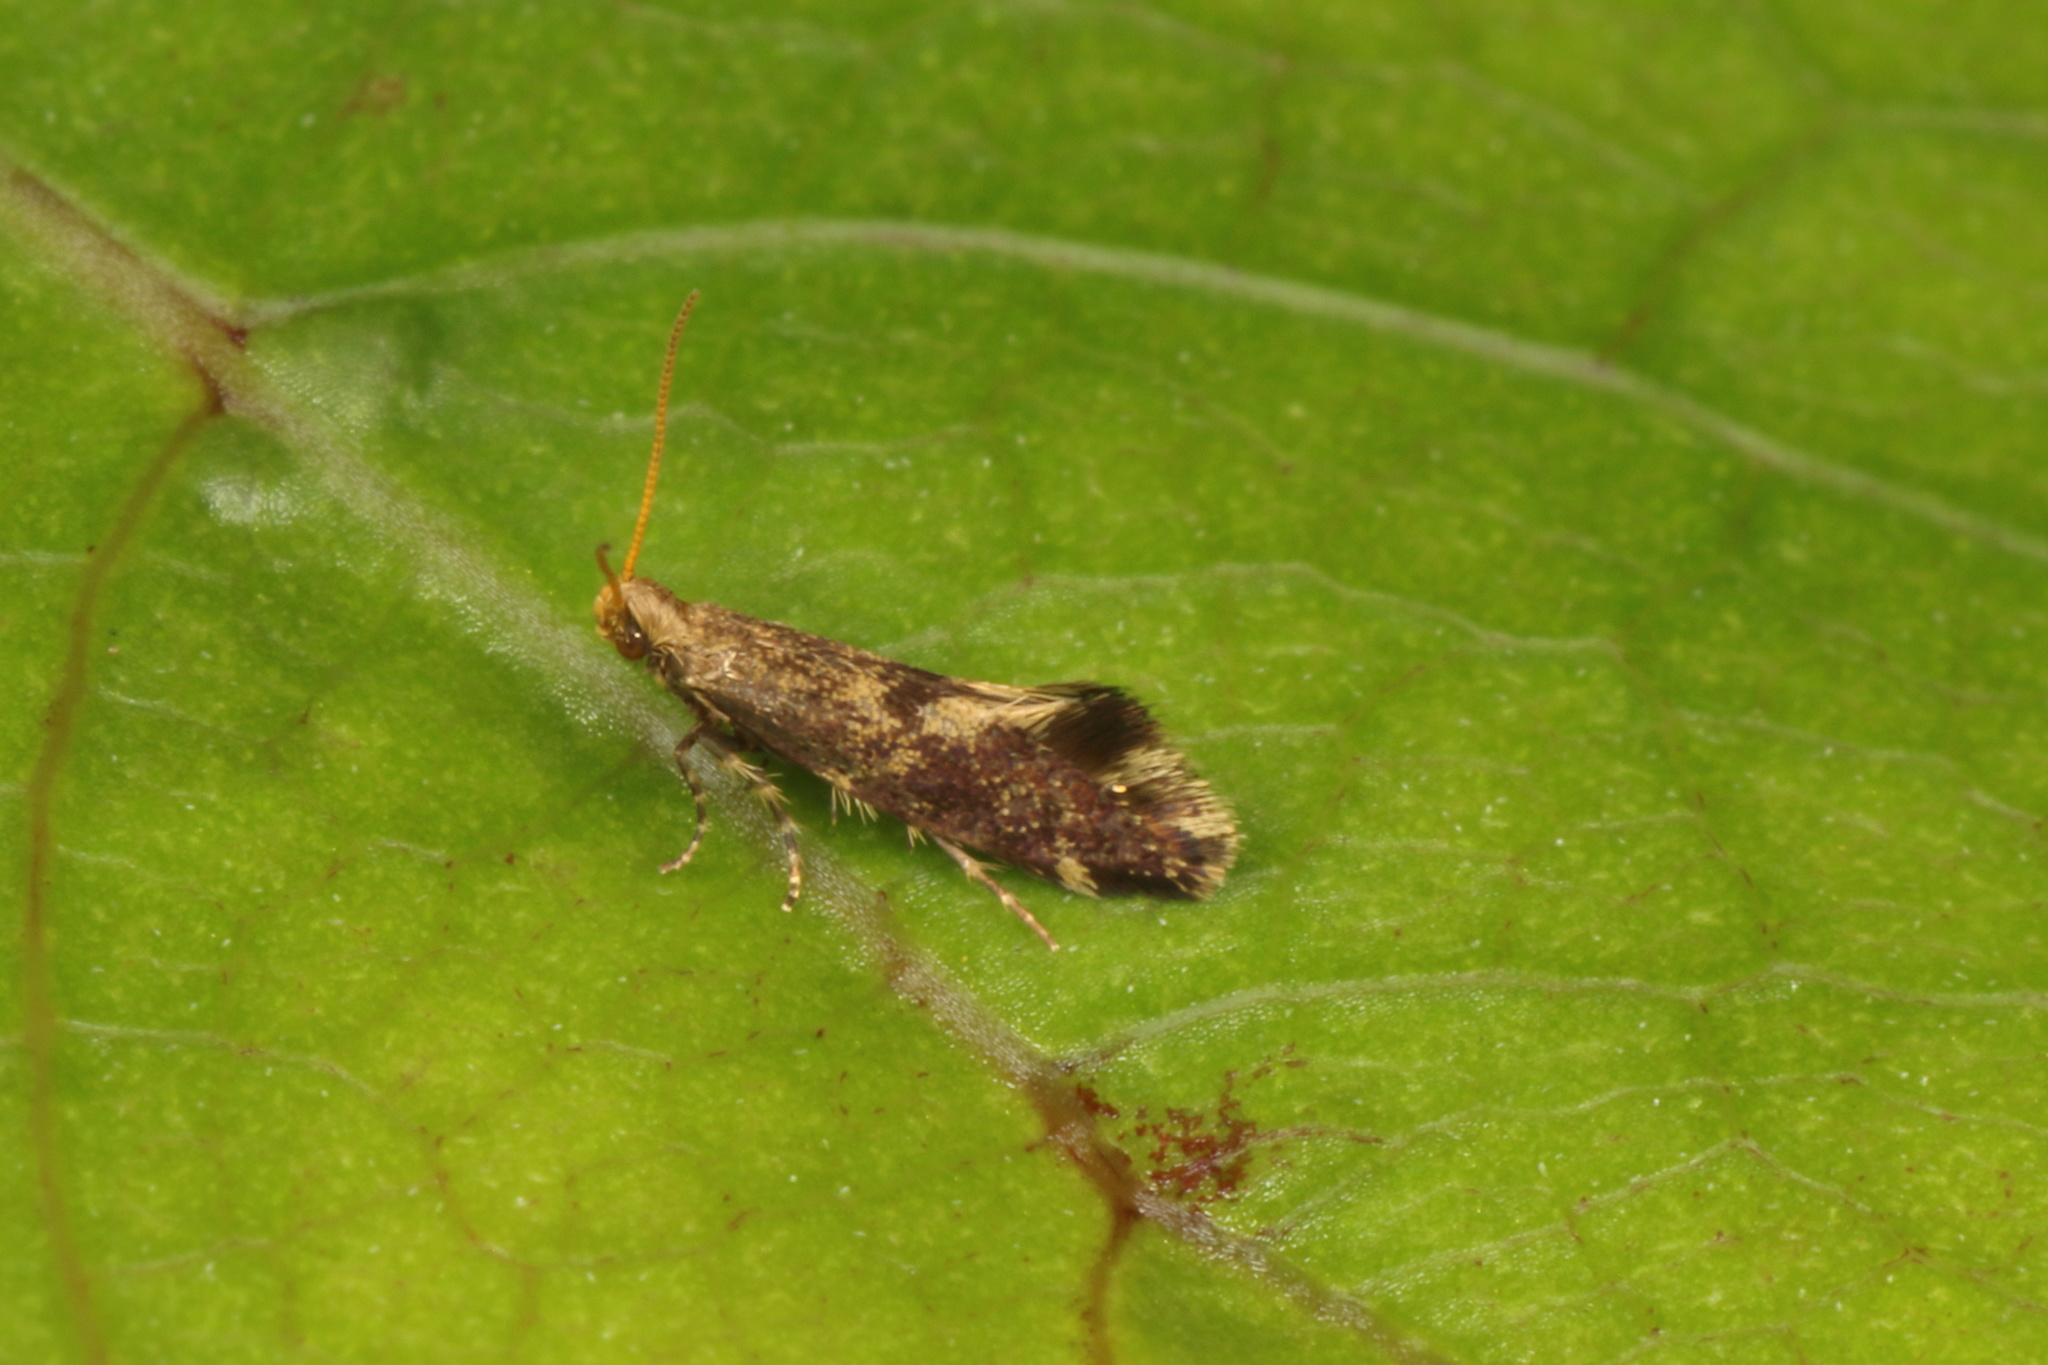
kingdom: Animalia
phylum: Arthropoda
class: Insecta
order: Lepidoptera
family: Mnesarchaeidae
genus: Mnesarchaea
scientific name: Mnesarchaea fusca
